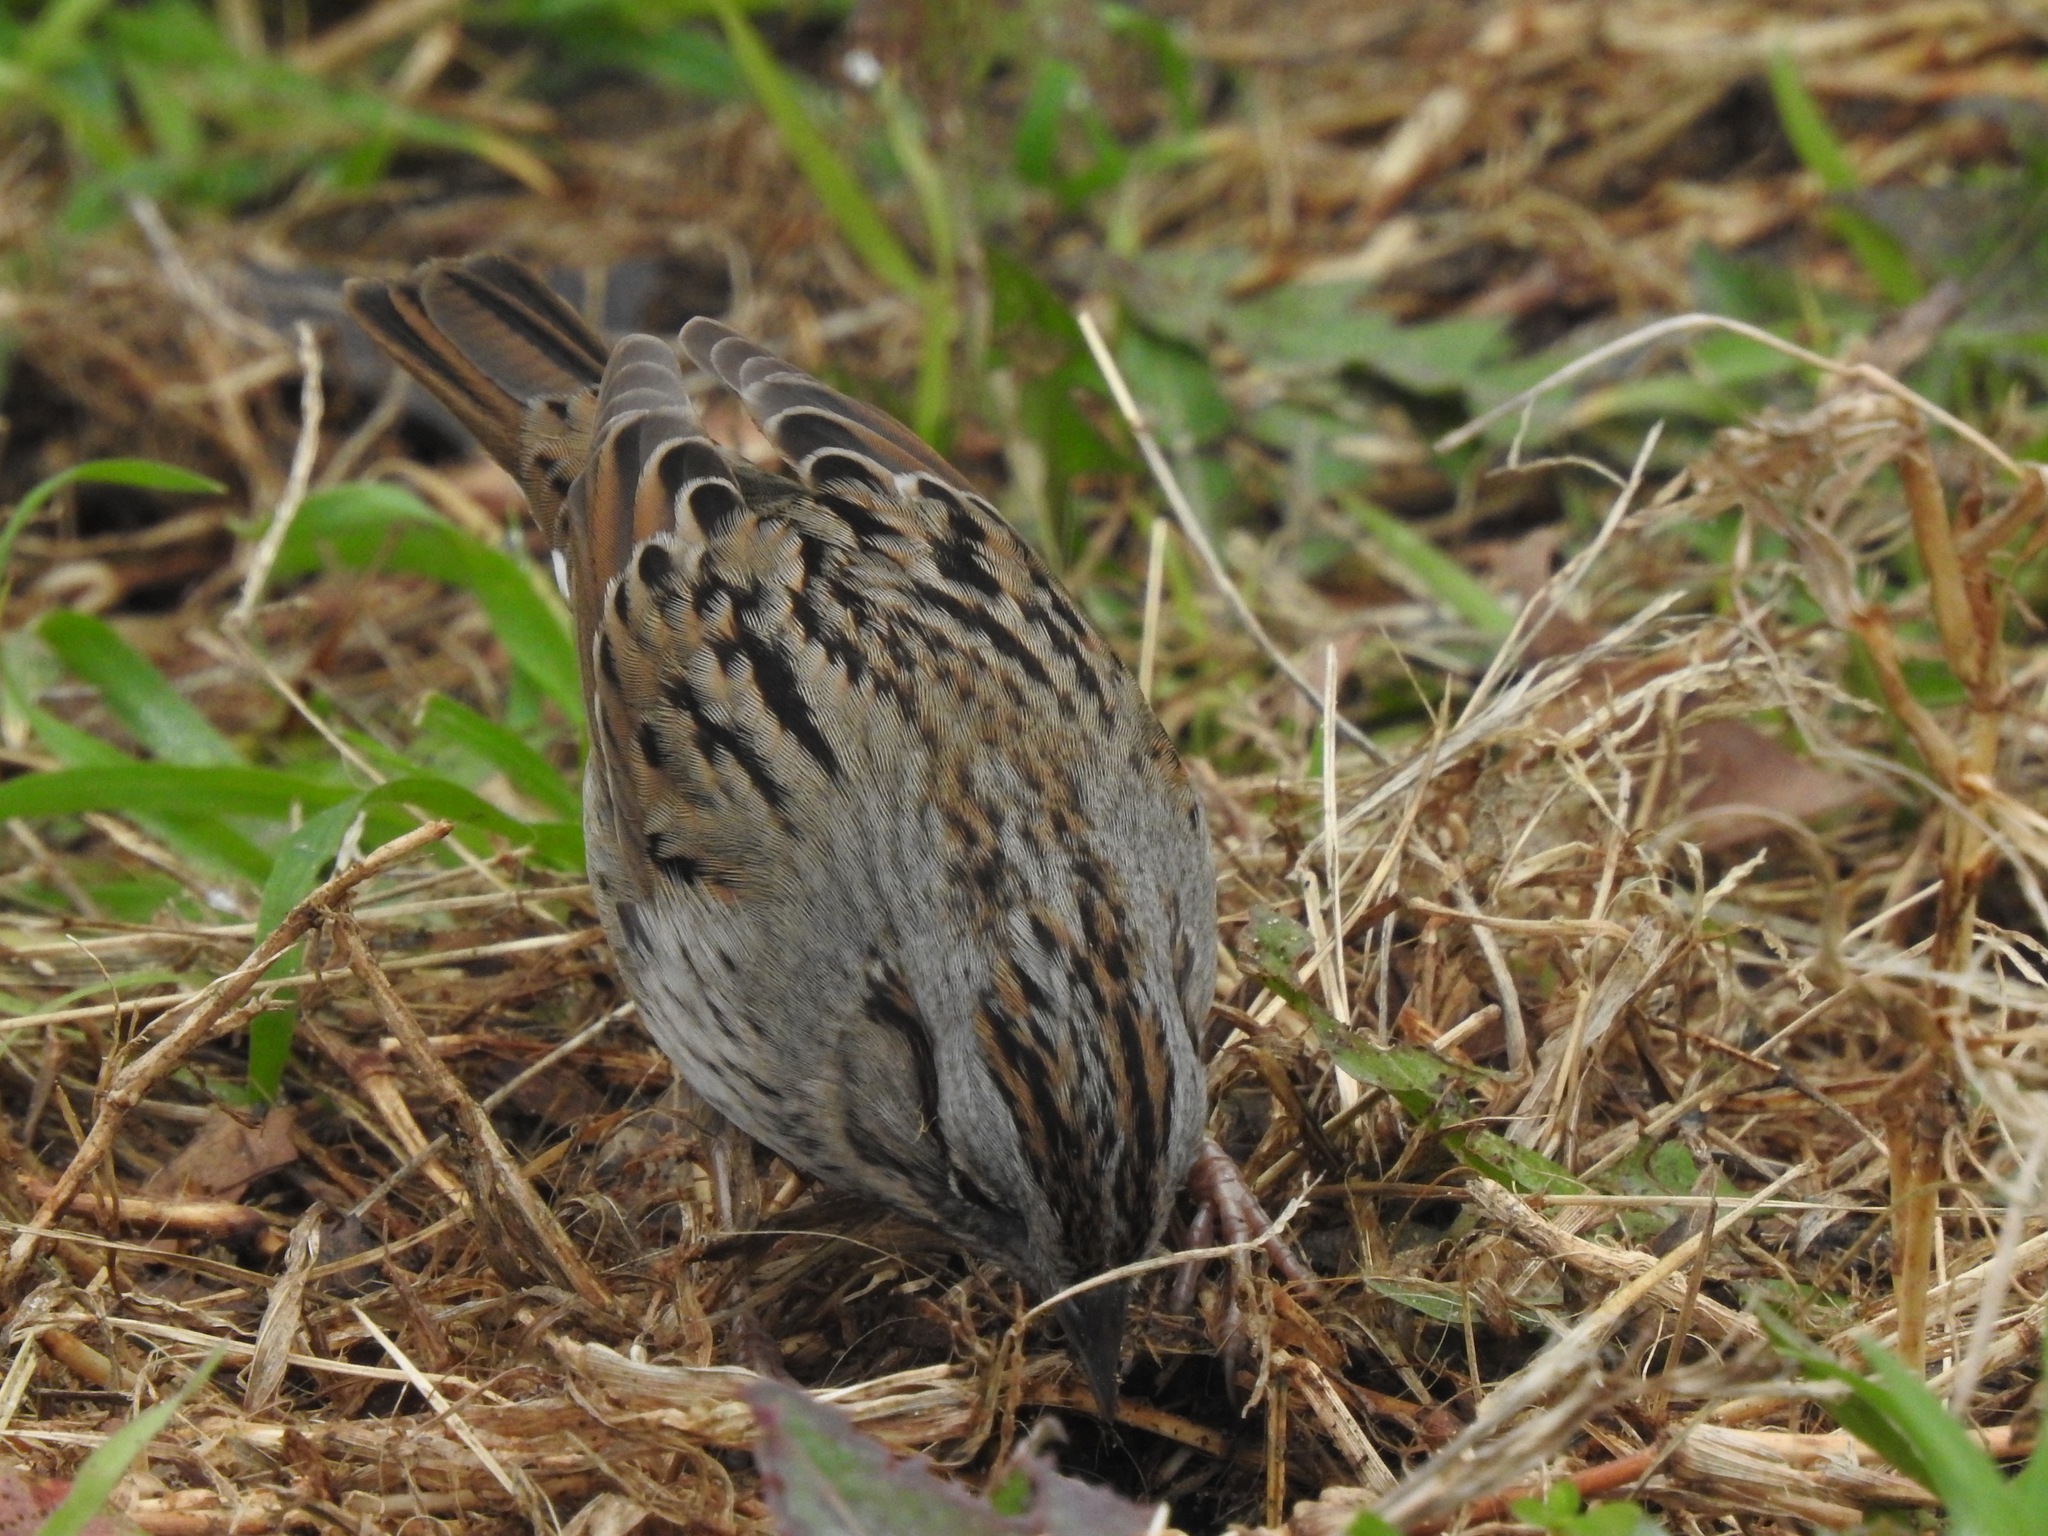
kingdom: Animalia
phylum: Chordata
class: Aves
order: Passeriformes
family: Passerellidae
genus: Melospiza
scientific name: Melospiza lincolnii
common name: Lincoln's sparrow
